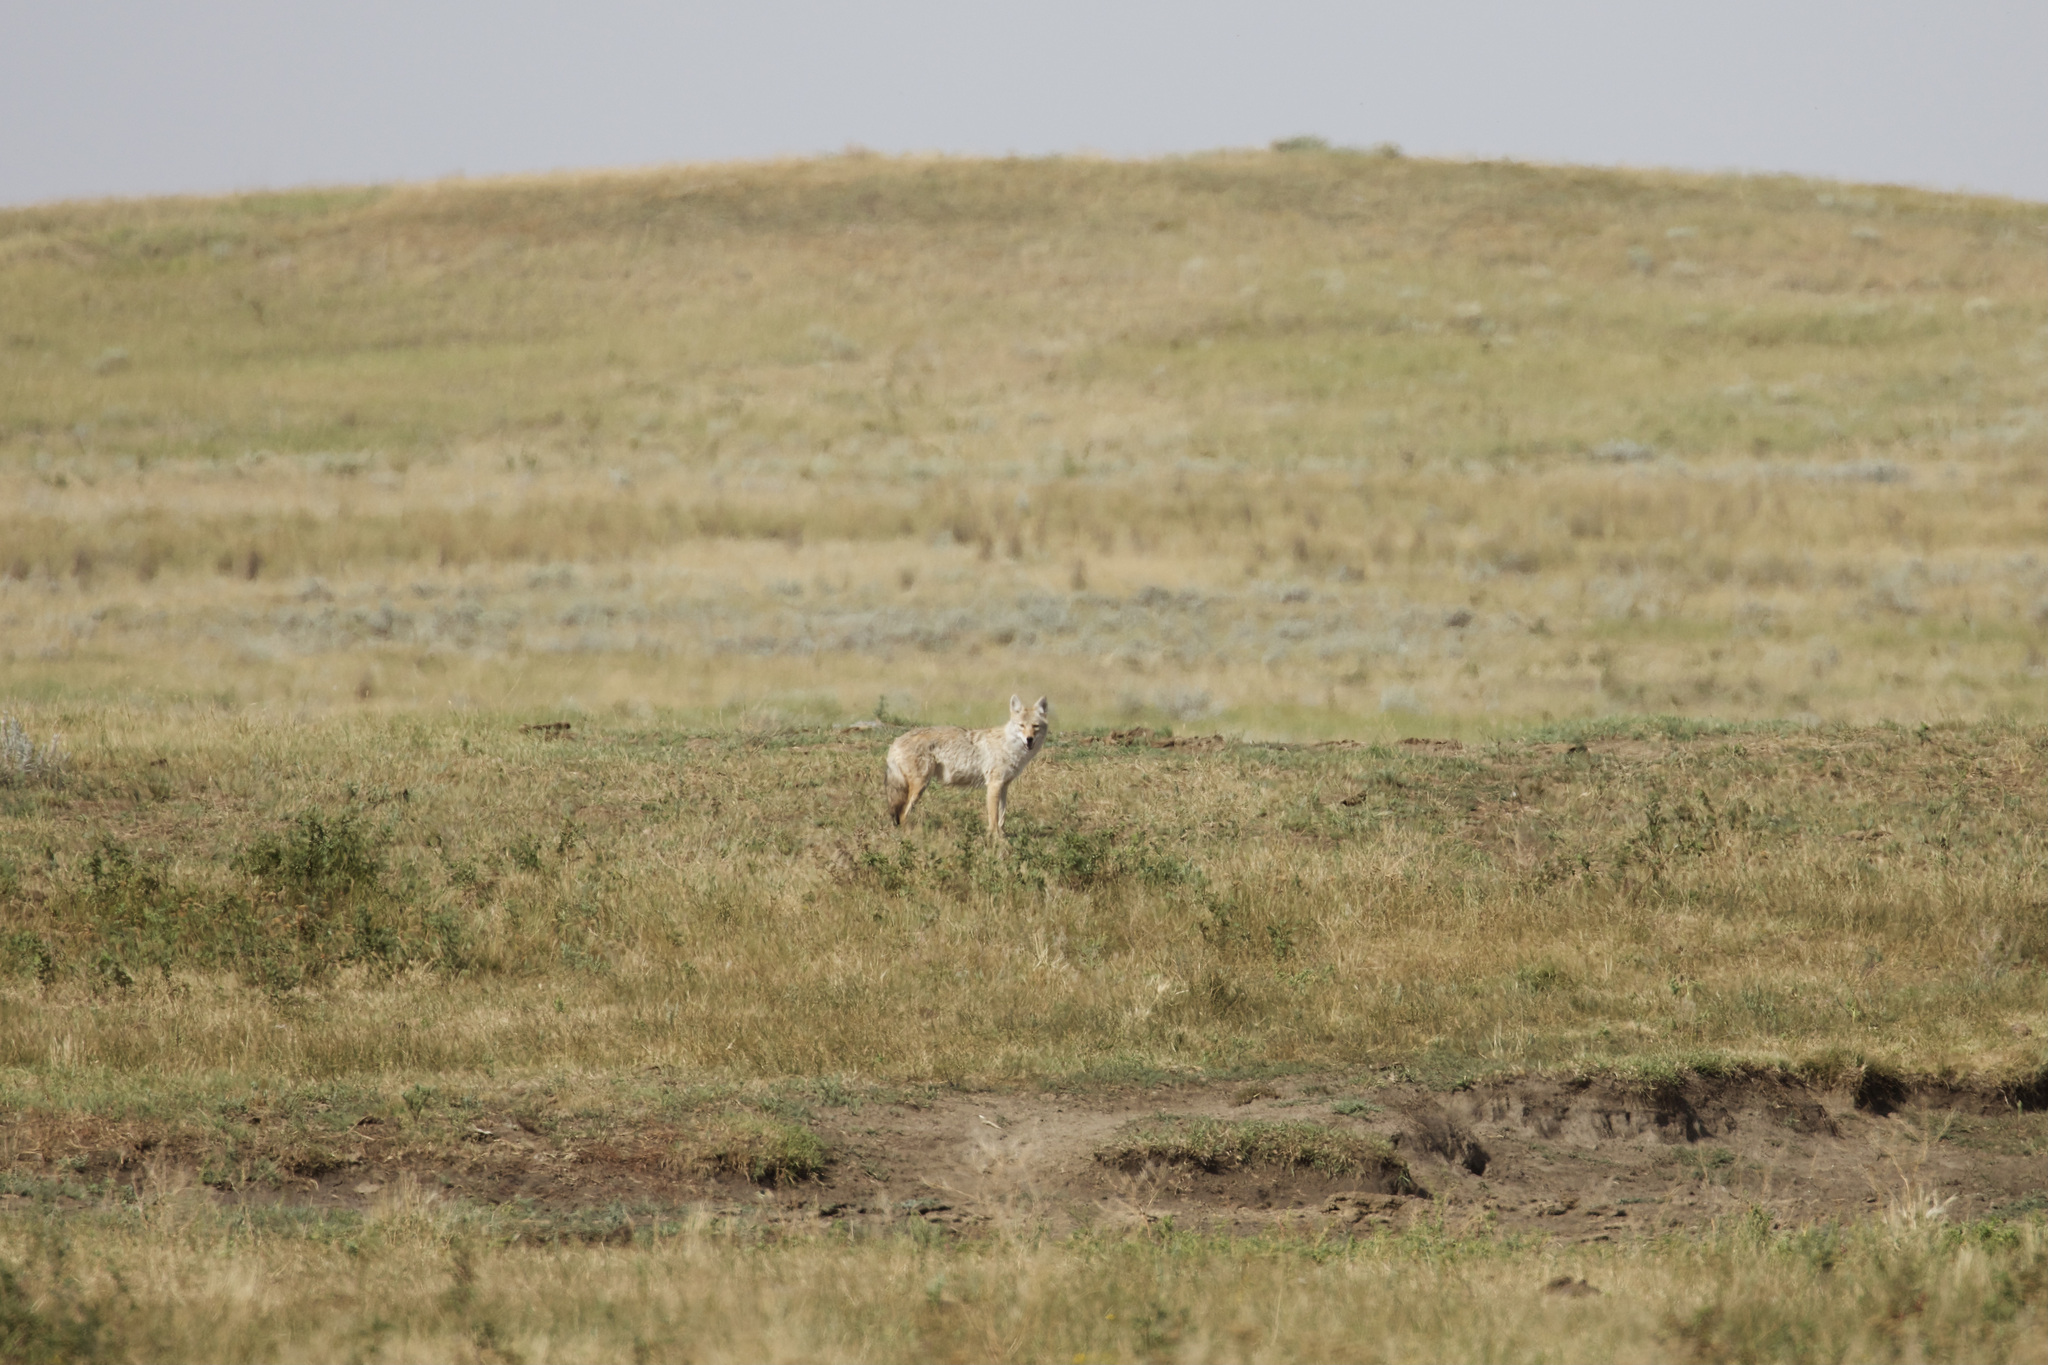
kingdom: Animalia
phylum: Chordata
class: Mammalia
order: Carnivora
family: Canidae
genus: Canis
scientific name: Canis latrans
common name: Coyote
